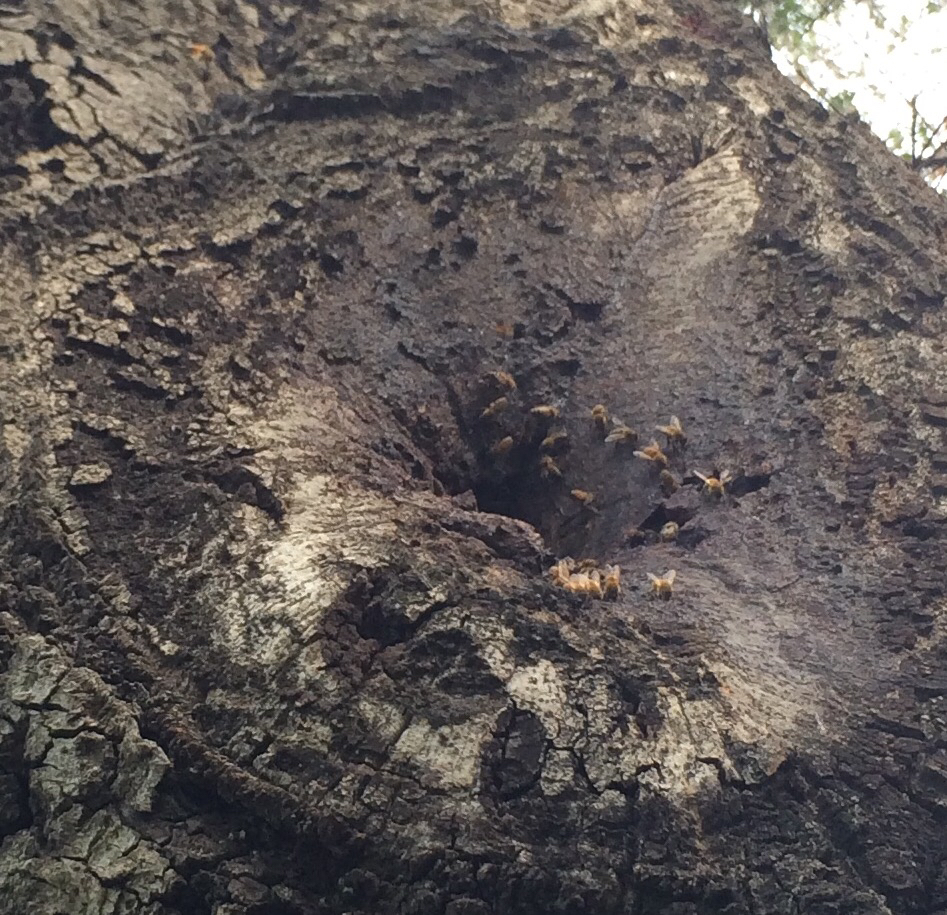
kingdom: Animalia
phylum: Arthropoda
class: Insecta
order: Hymenoptera
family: Apidae
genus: Apis
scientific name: Apis mellifera
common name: Honey bee
